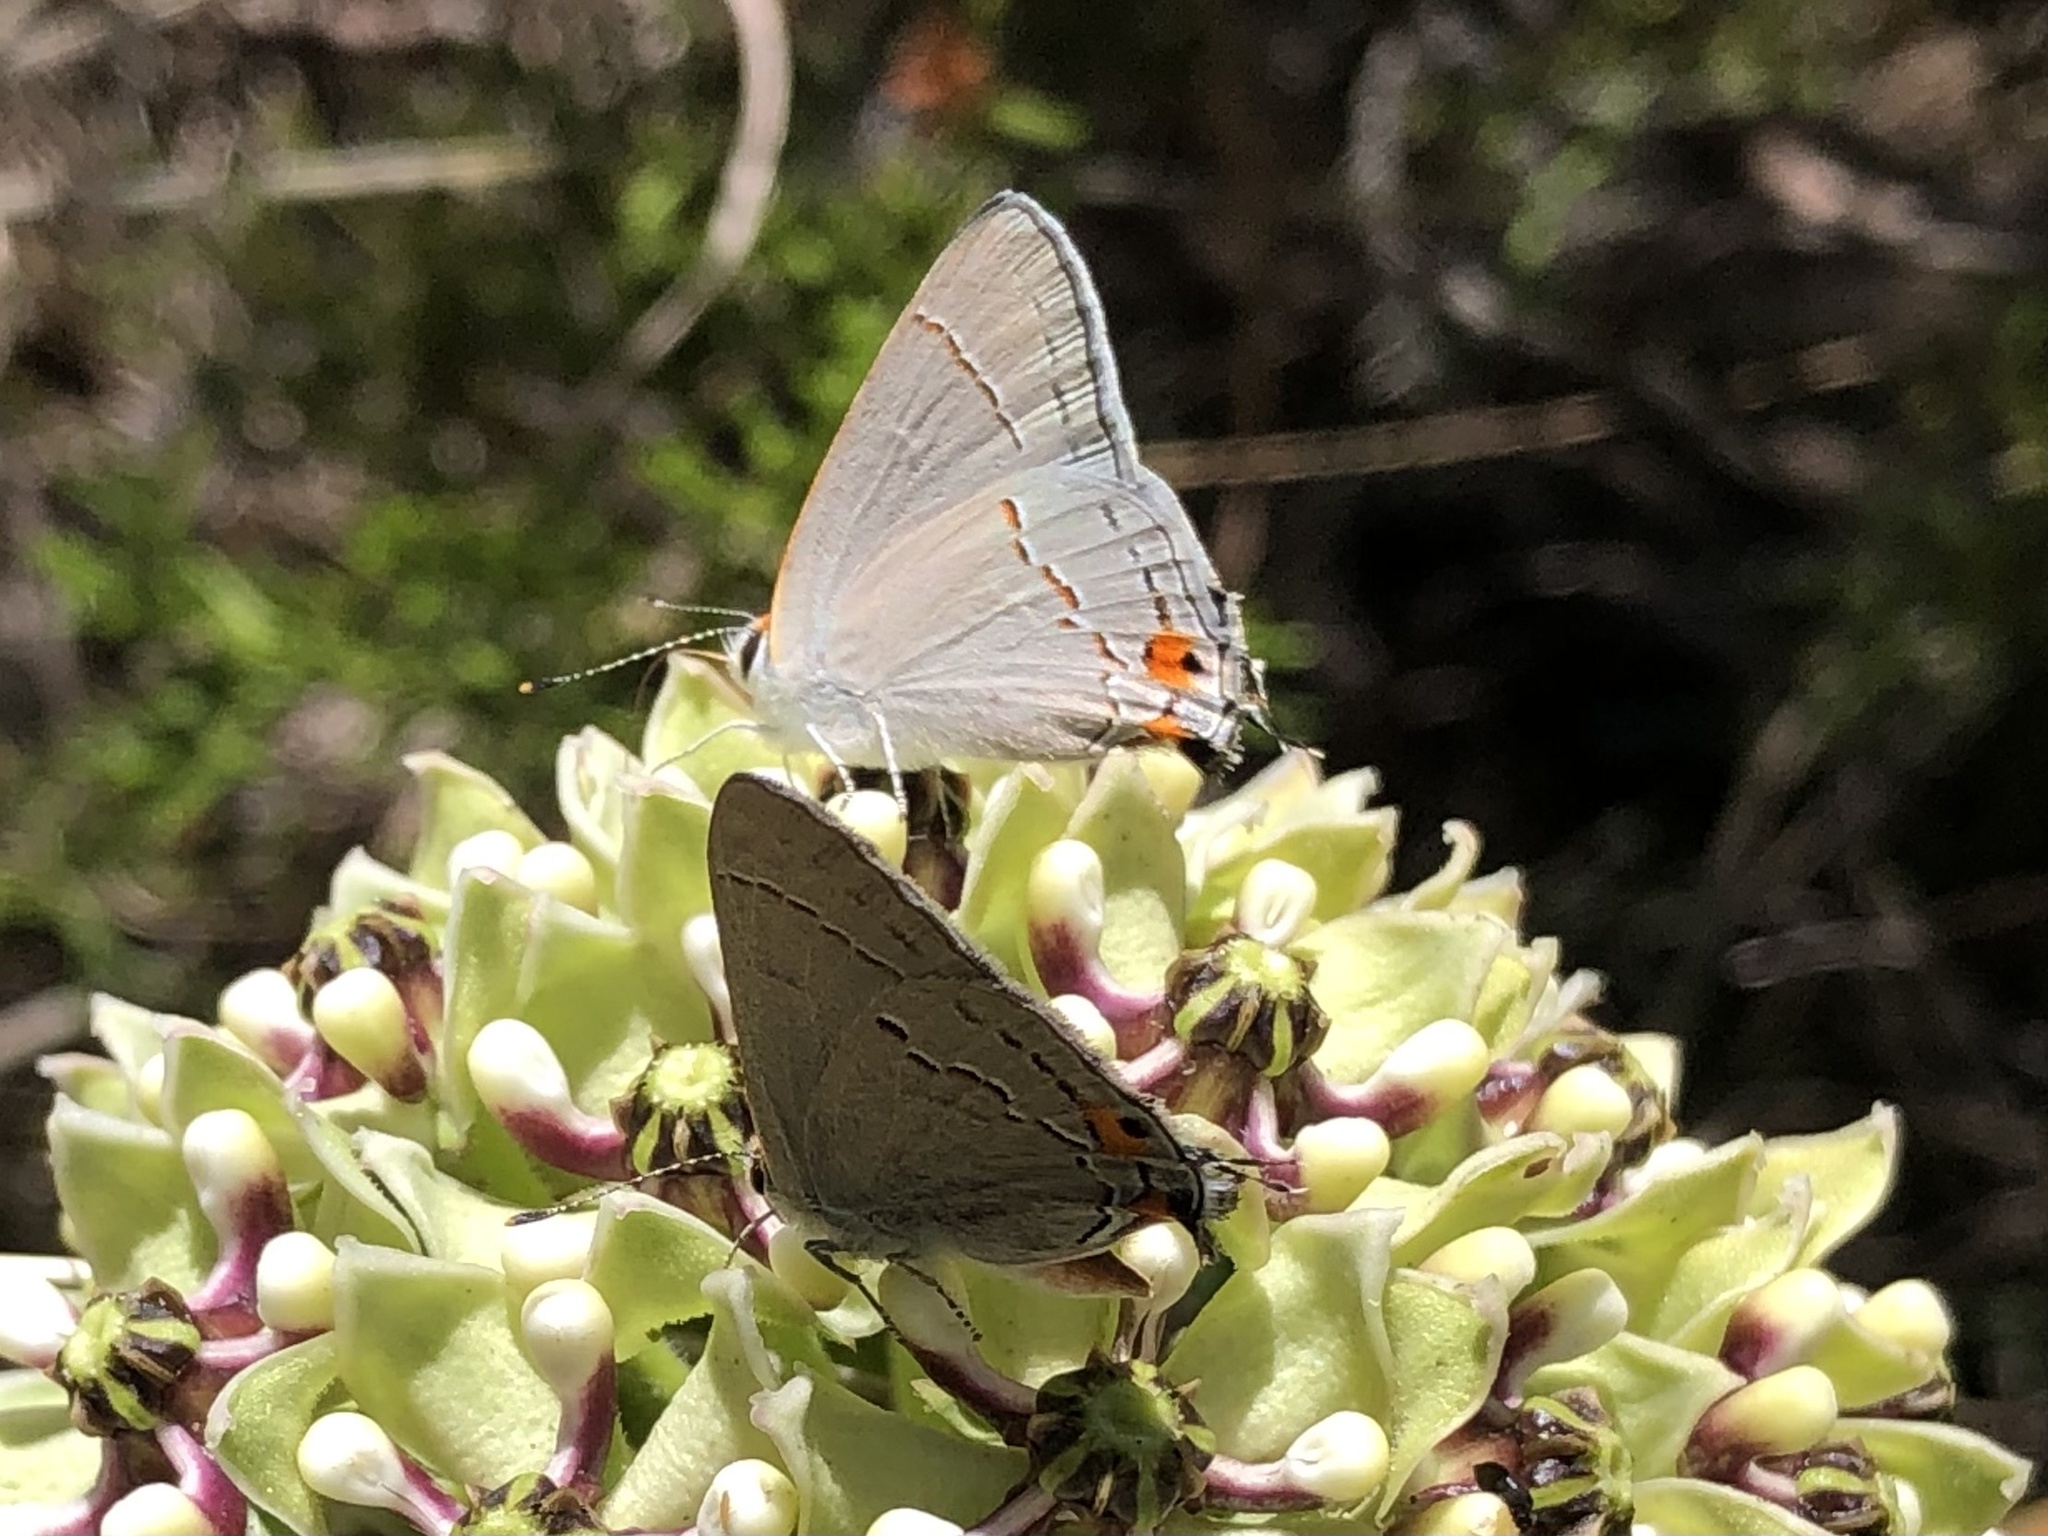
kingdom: Animalia
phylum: Arthropoda
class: Insecta
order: Lepidoptera
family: Lycaenidae
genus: Strymon
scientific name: Strymon melinus
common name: Gray hairstreak
